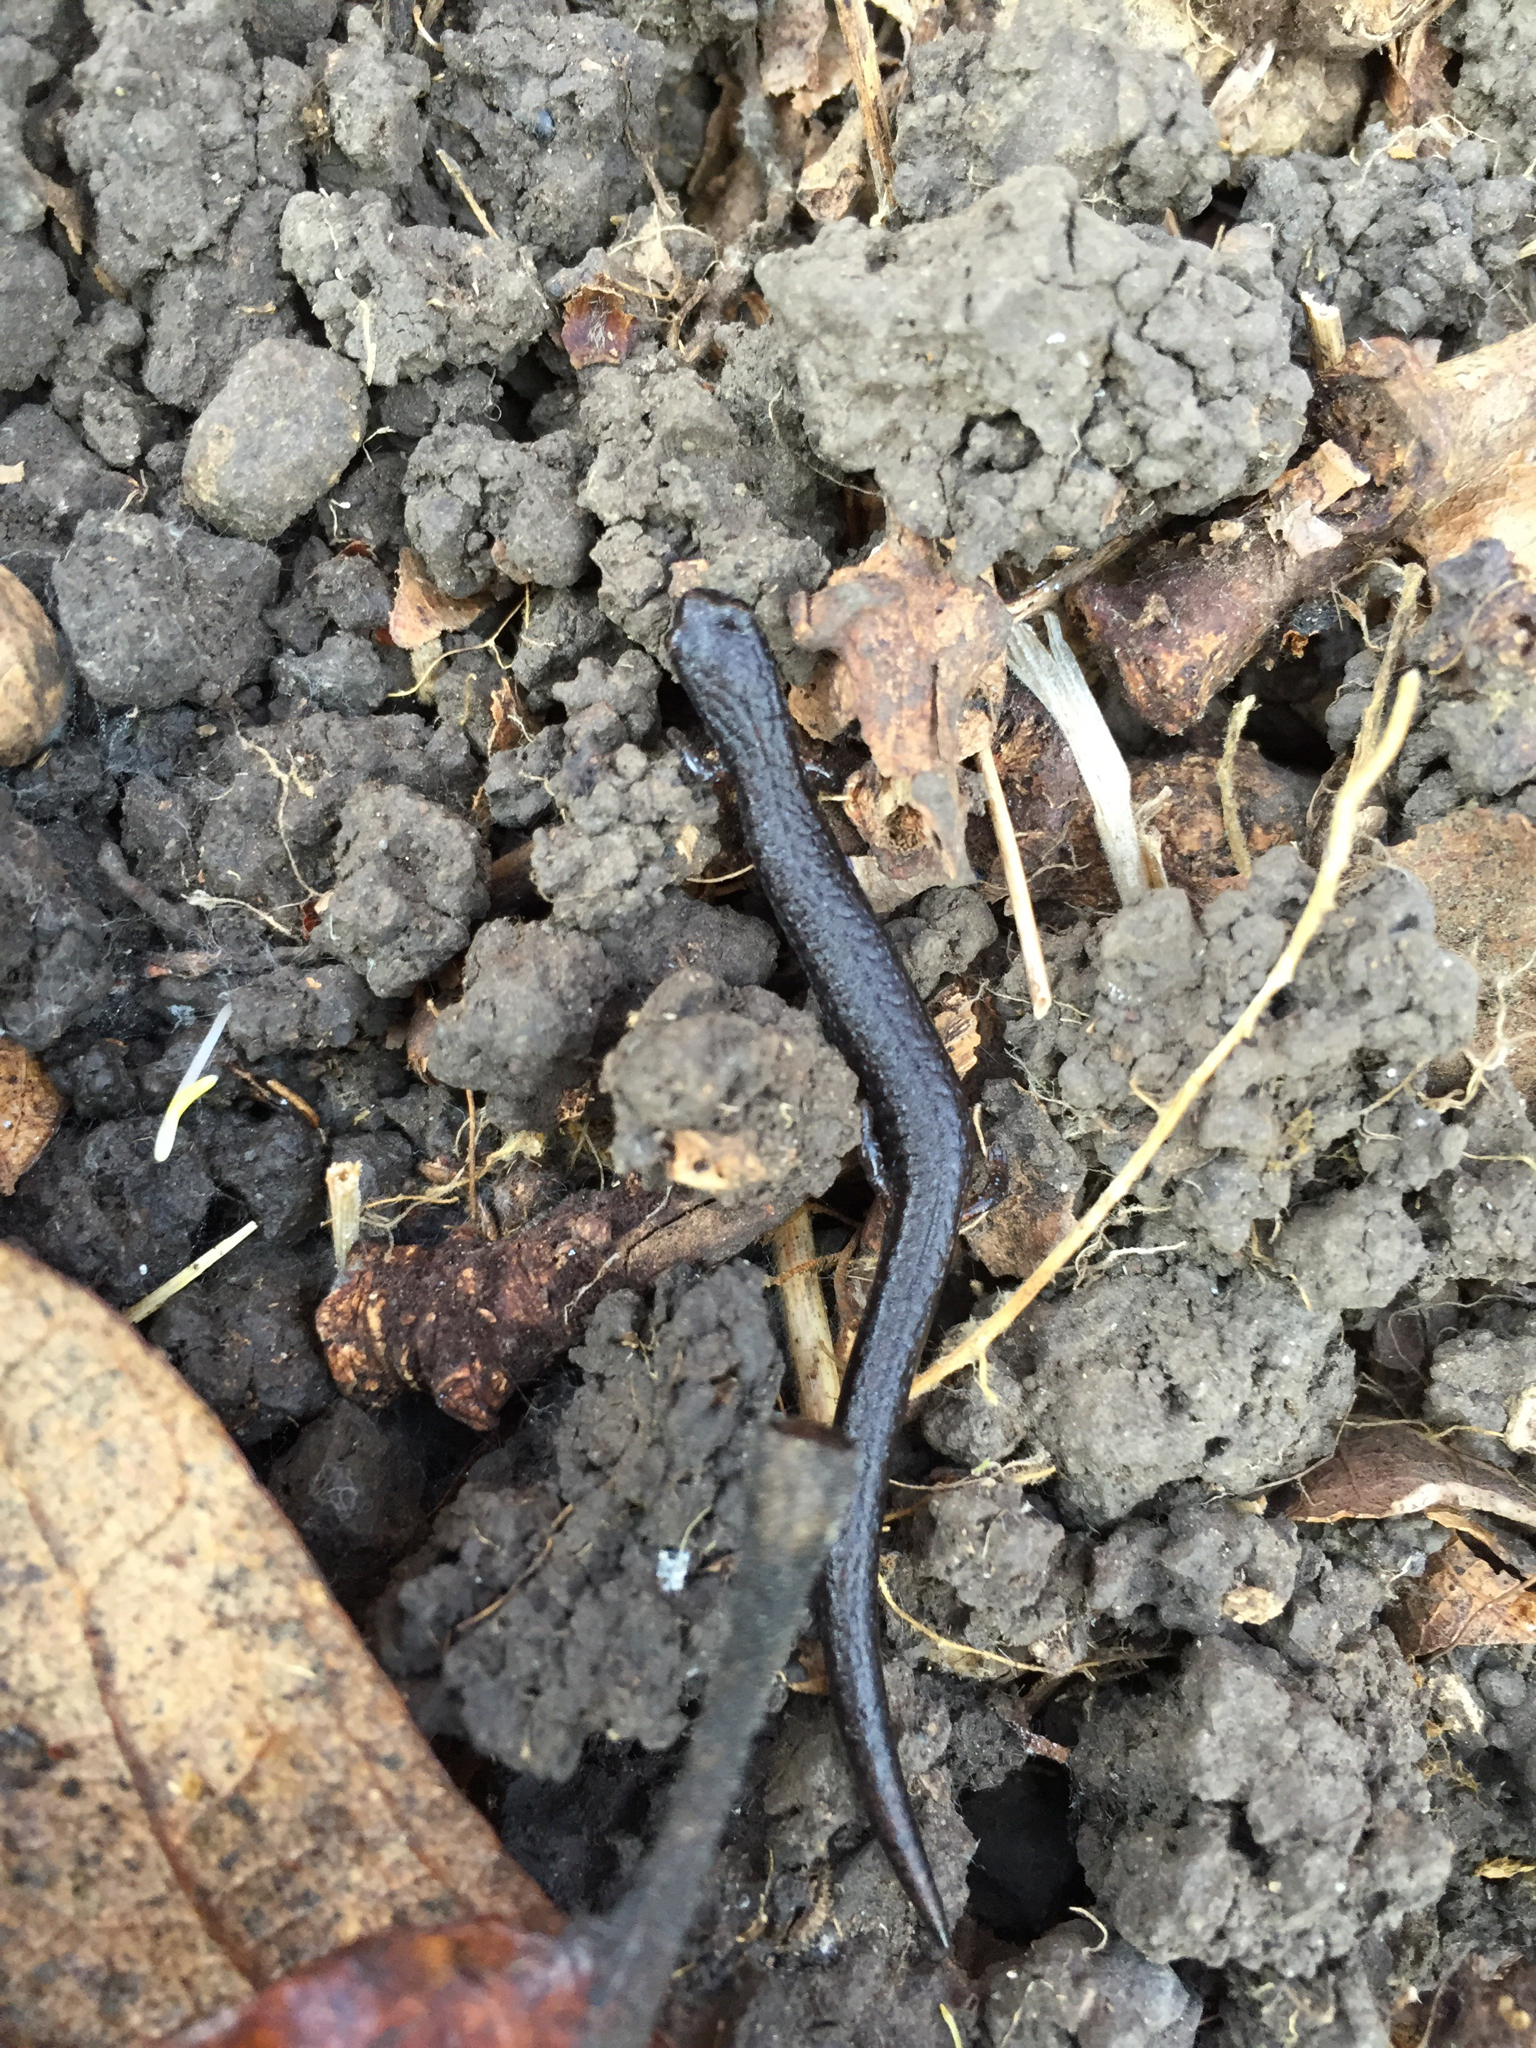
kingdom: Animalia
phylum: Chordata
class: Amphibia
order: Caudata
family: Plethodontidae
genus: Batrachoseps
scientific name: Batrachoseps attenuatus
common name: California slender salamander
